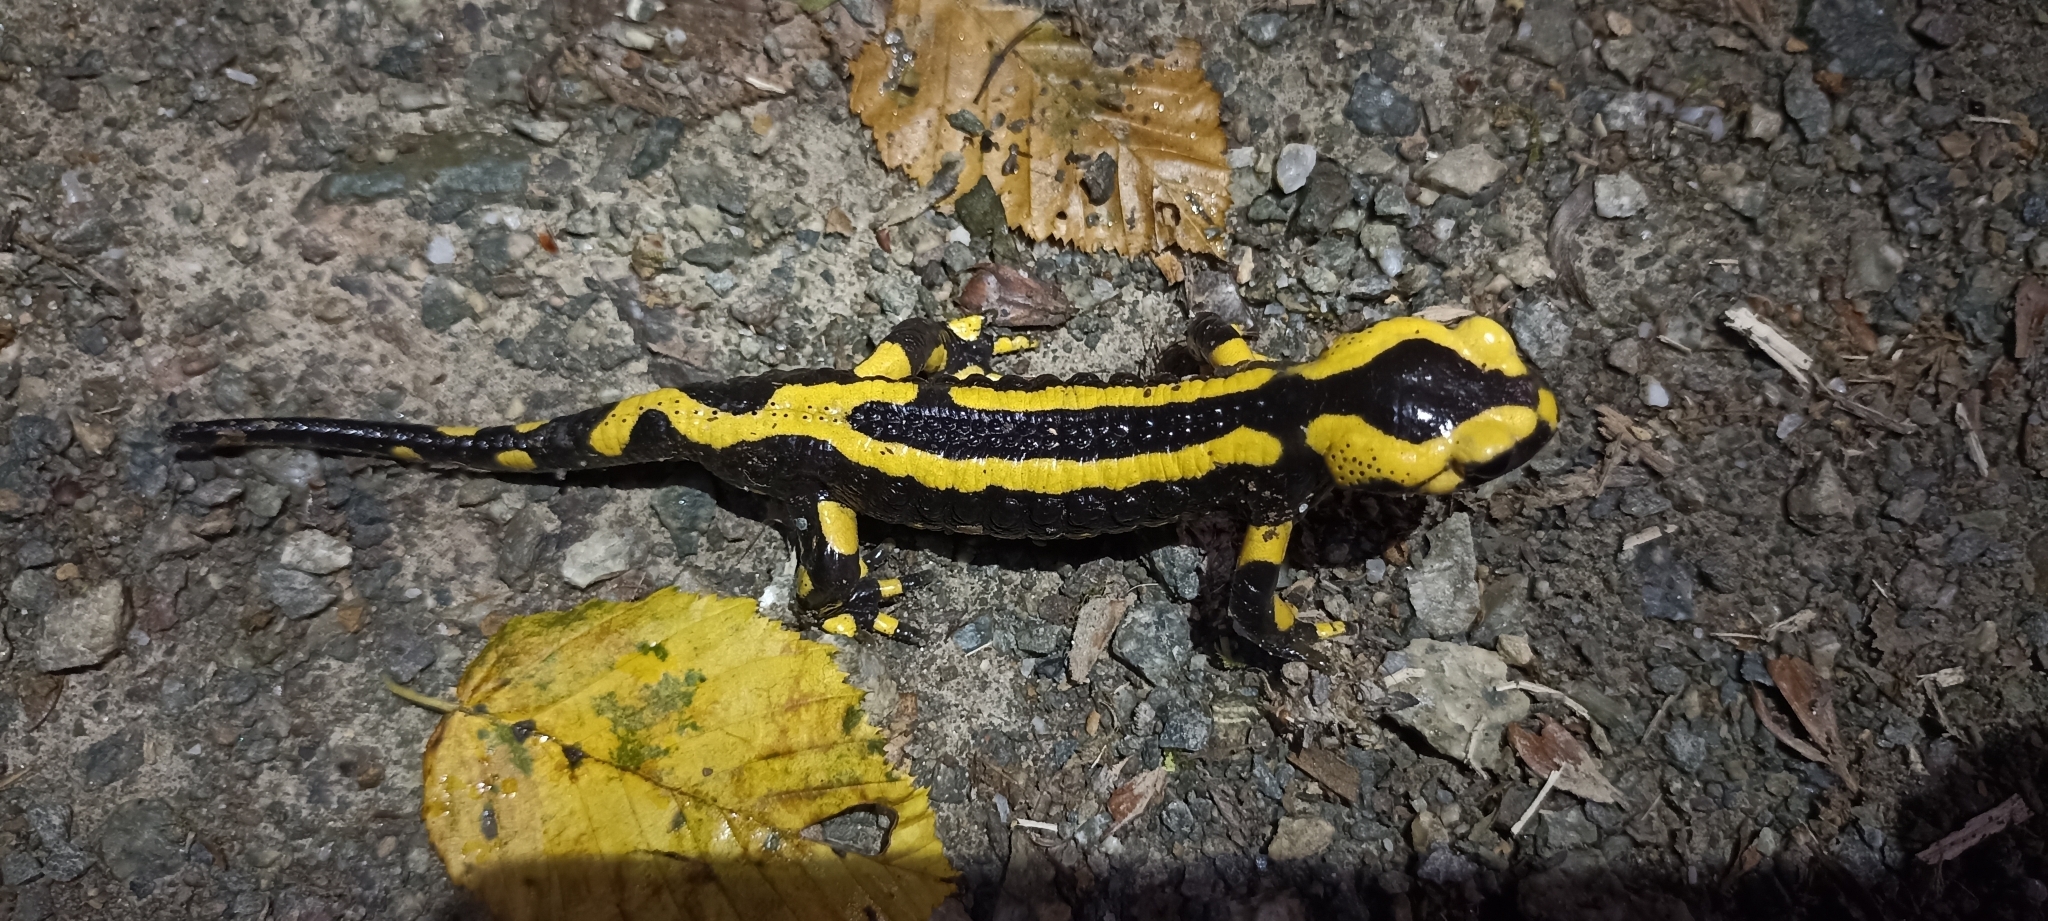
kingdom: Animalia
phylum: Chordata
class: Amphibia
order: Caudata
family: Salamandridae
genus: Salamandra
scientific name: Salamandra salamandra
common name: Fire salamander
